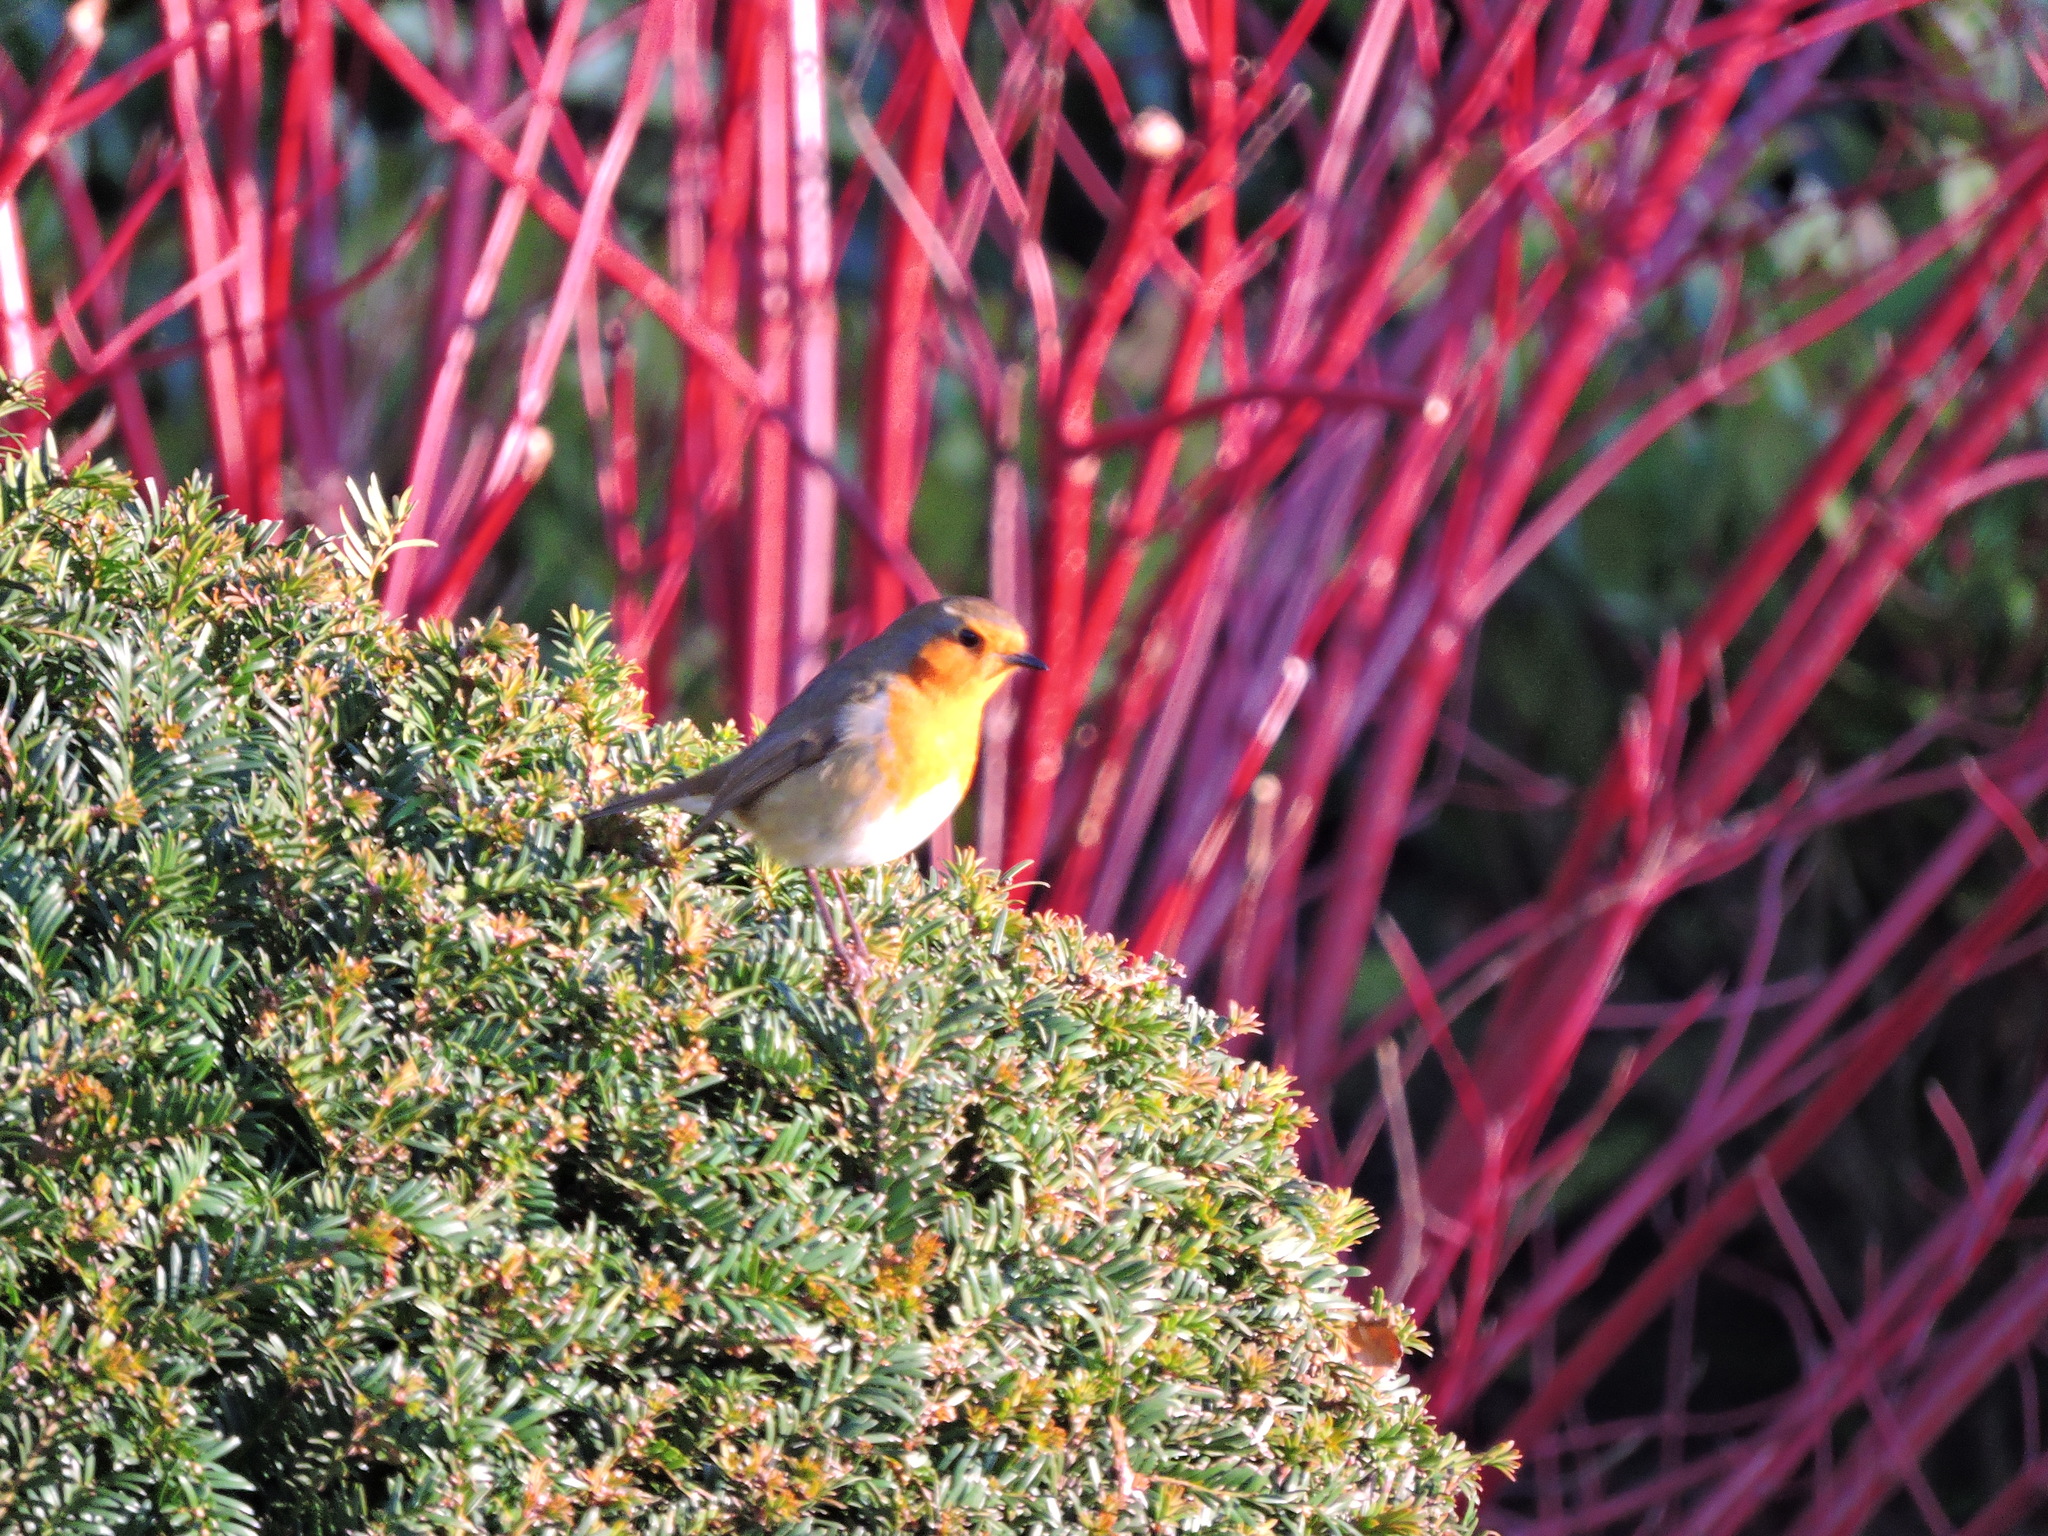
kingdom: Animalia
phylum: Chordata
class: Aves
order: Passeriformes
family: Muscicapidae
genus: Erithacus
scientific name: Erithacus rubecula
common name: European robin
